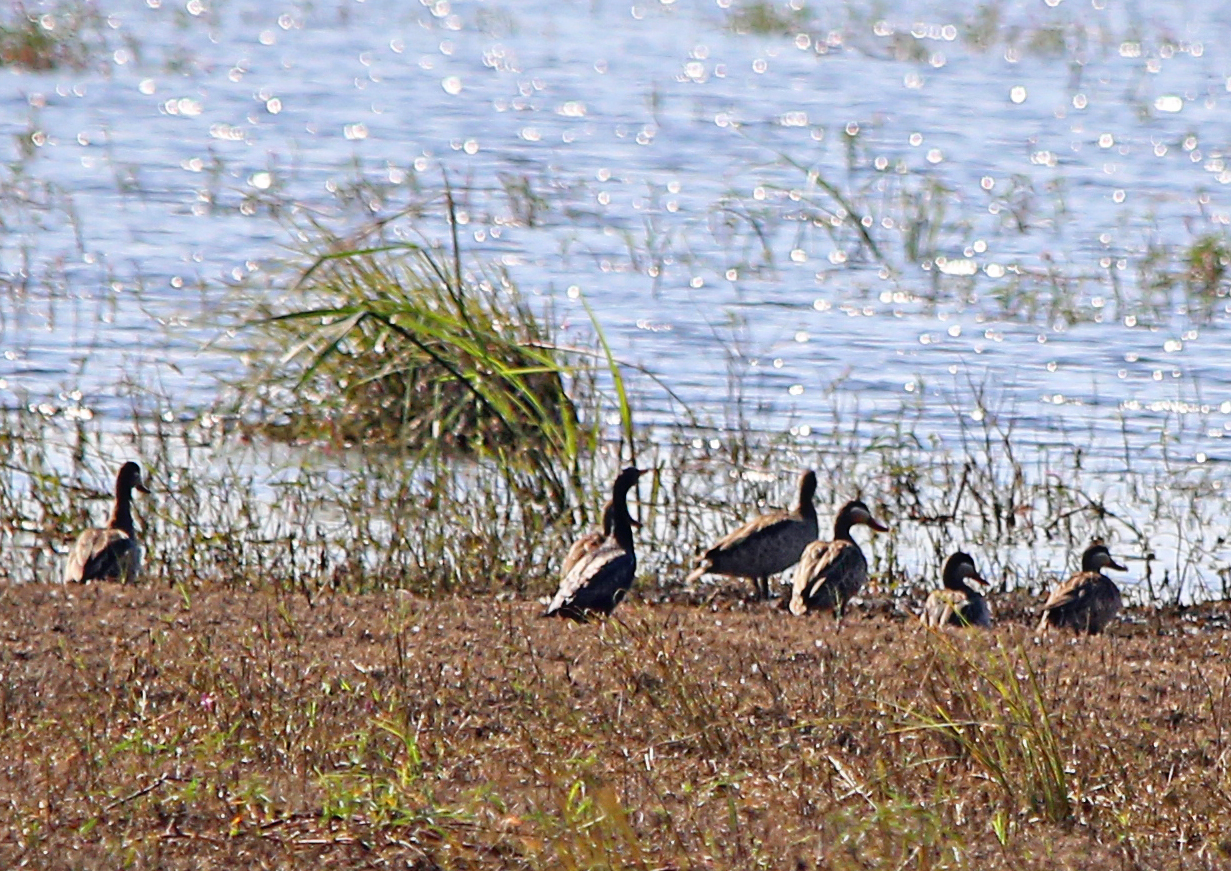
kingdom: Animalia
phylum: Chordata
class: Aves
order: Anseriformes
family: Anatidae
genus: Anas
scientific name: Anas erythrorhyncha
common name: Red-billed teal
